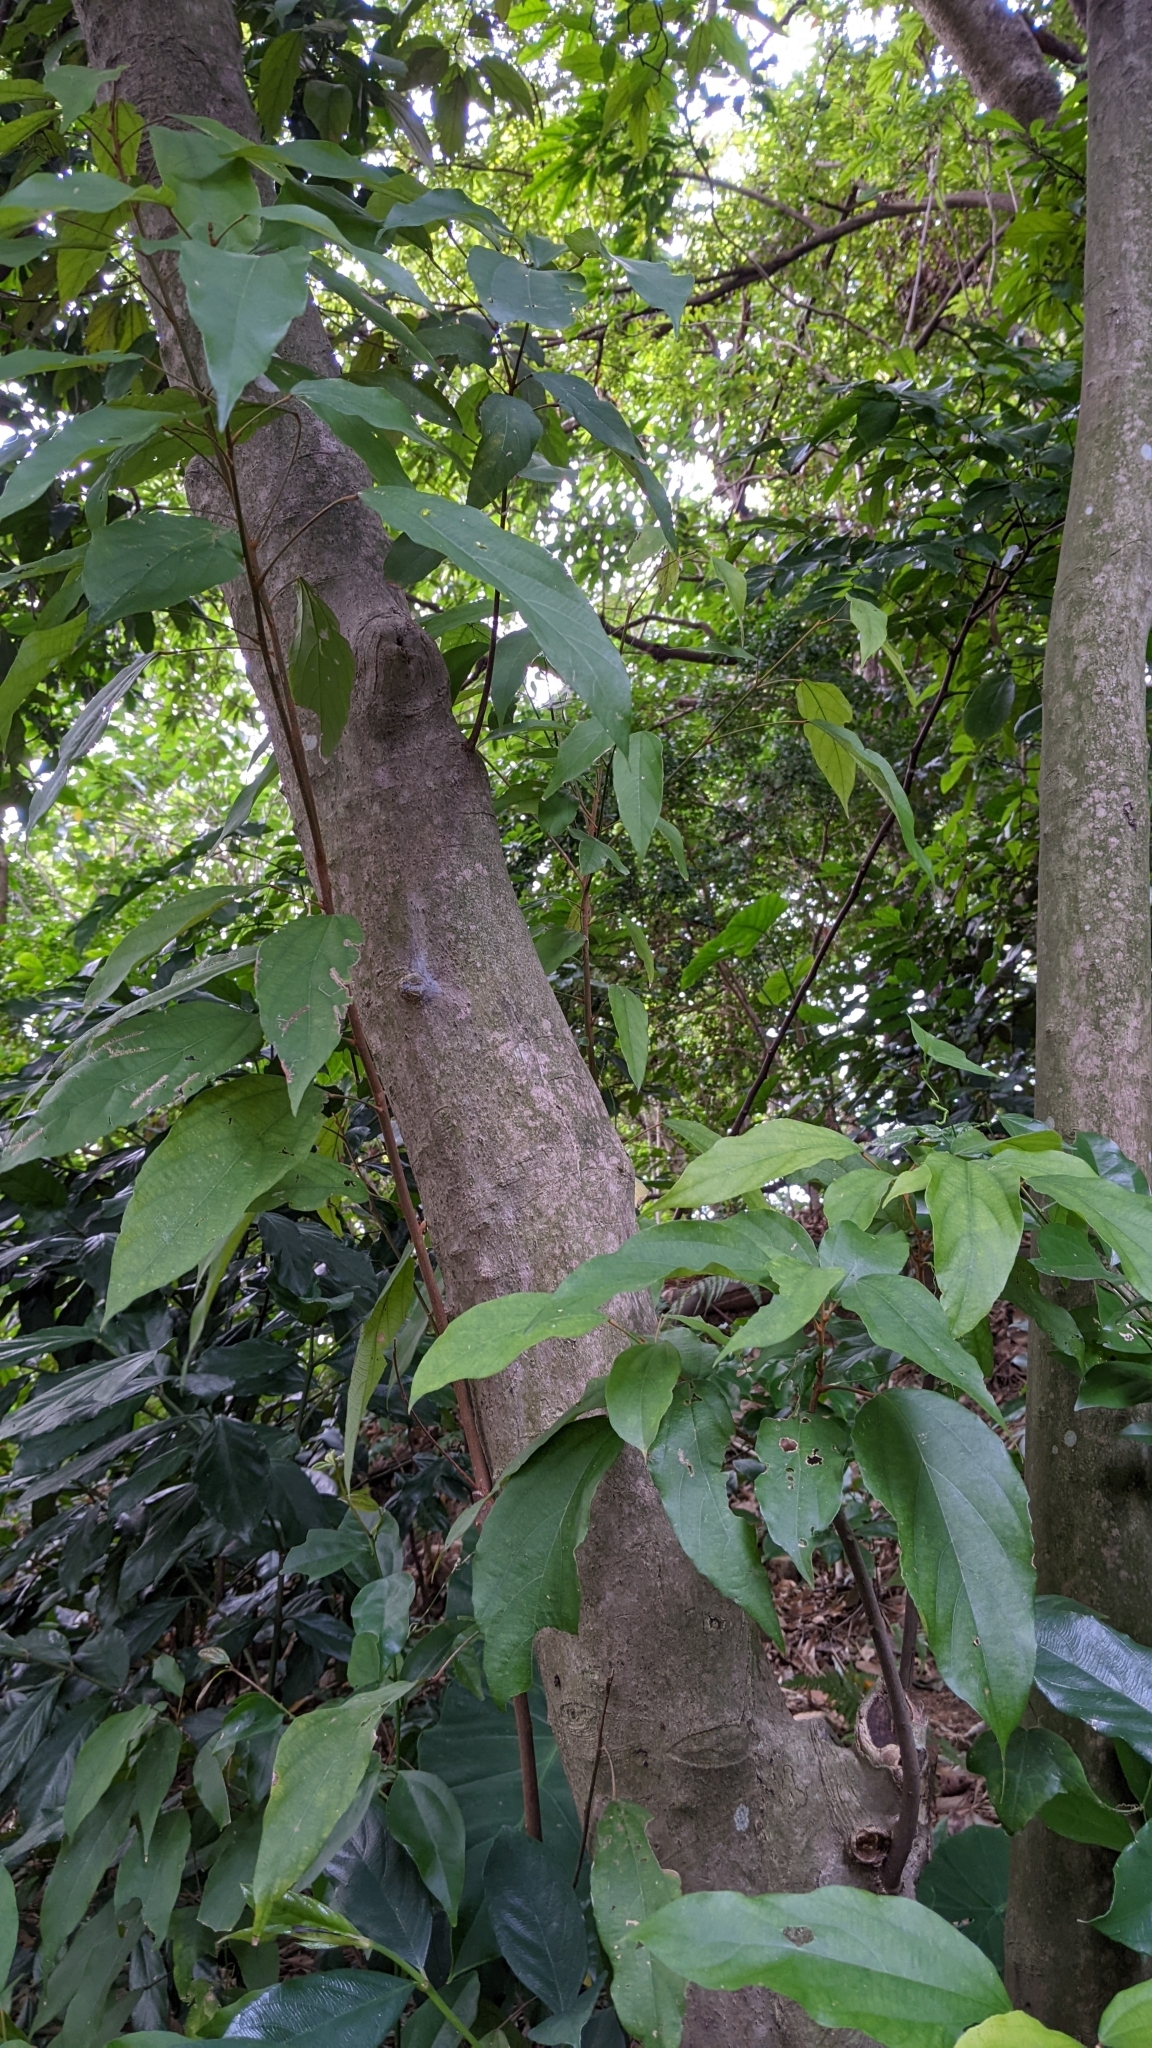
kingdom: Plantae
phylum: Tracheophyta
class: Magnoliopsida
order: Malpighiales
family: Euphorbiaceae
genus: Mallotus
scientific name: Mallotus philippensis
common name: Kamala tree
